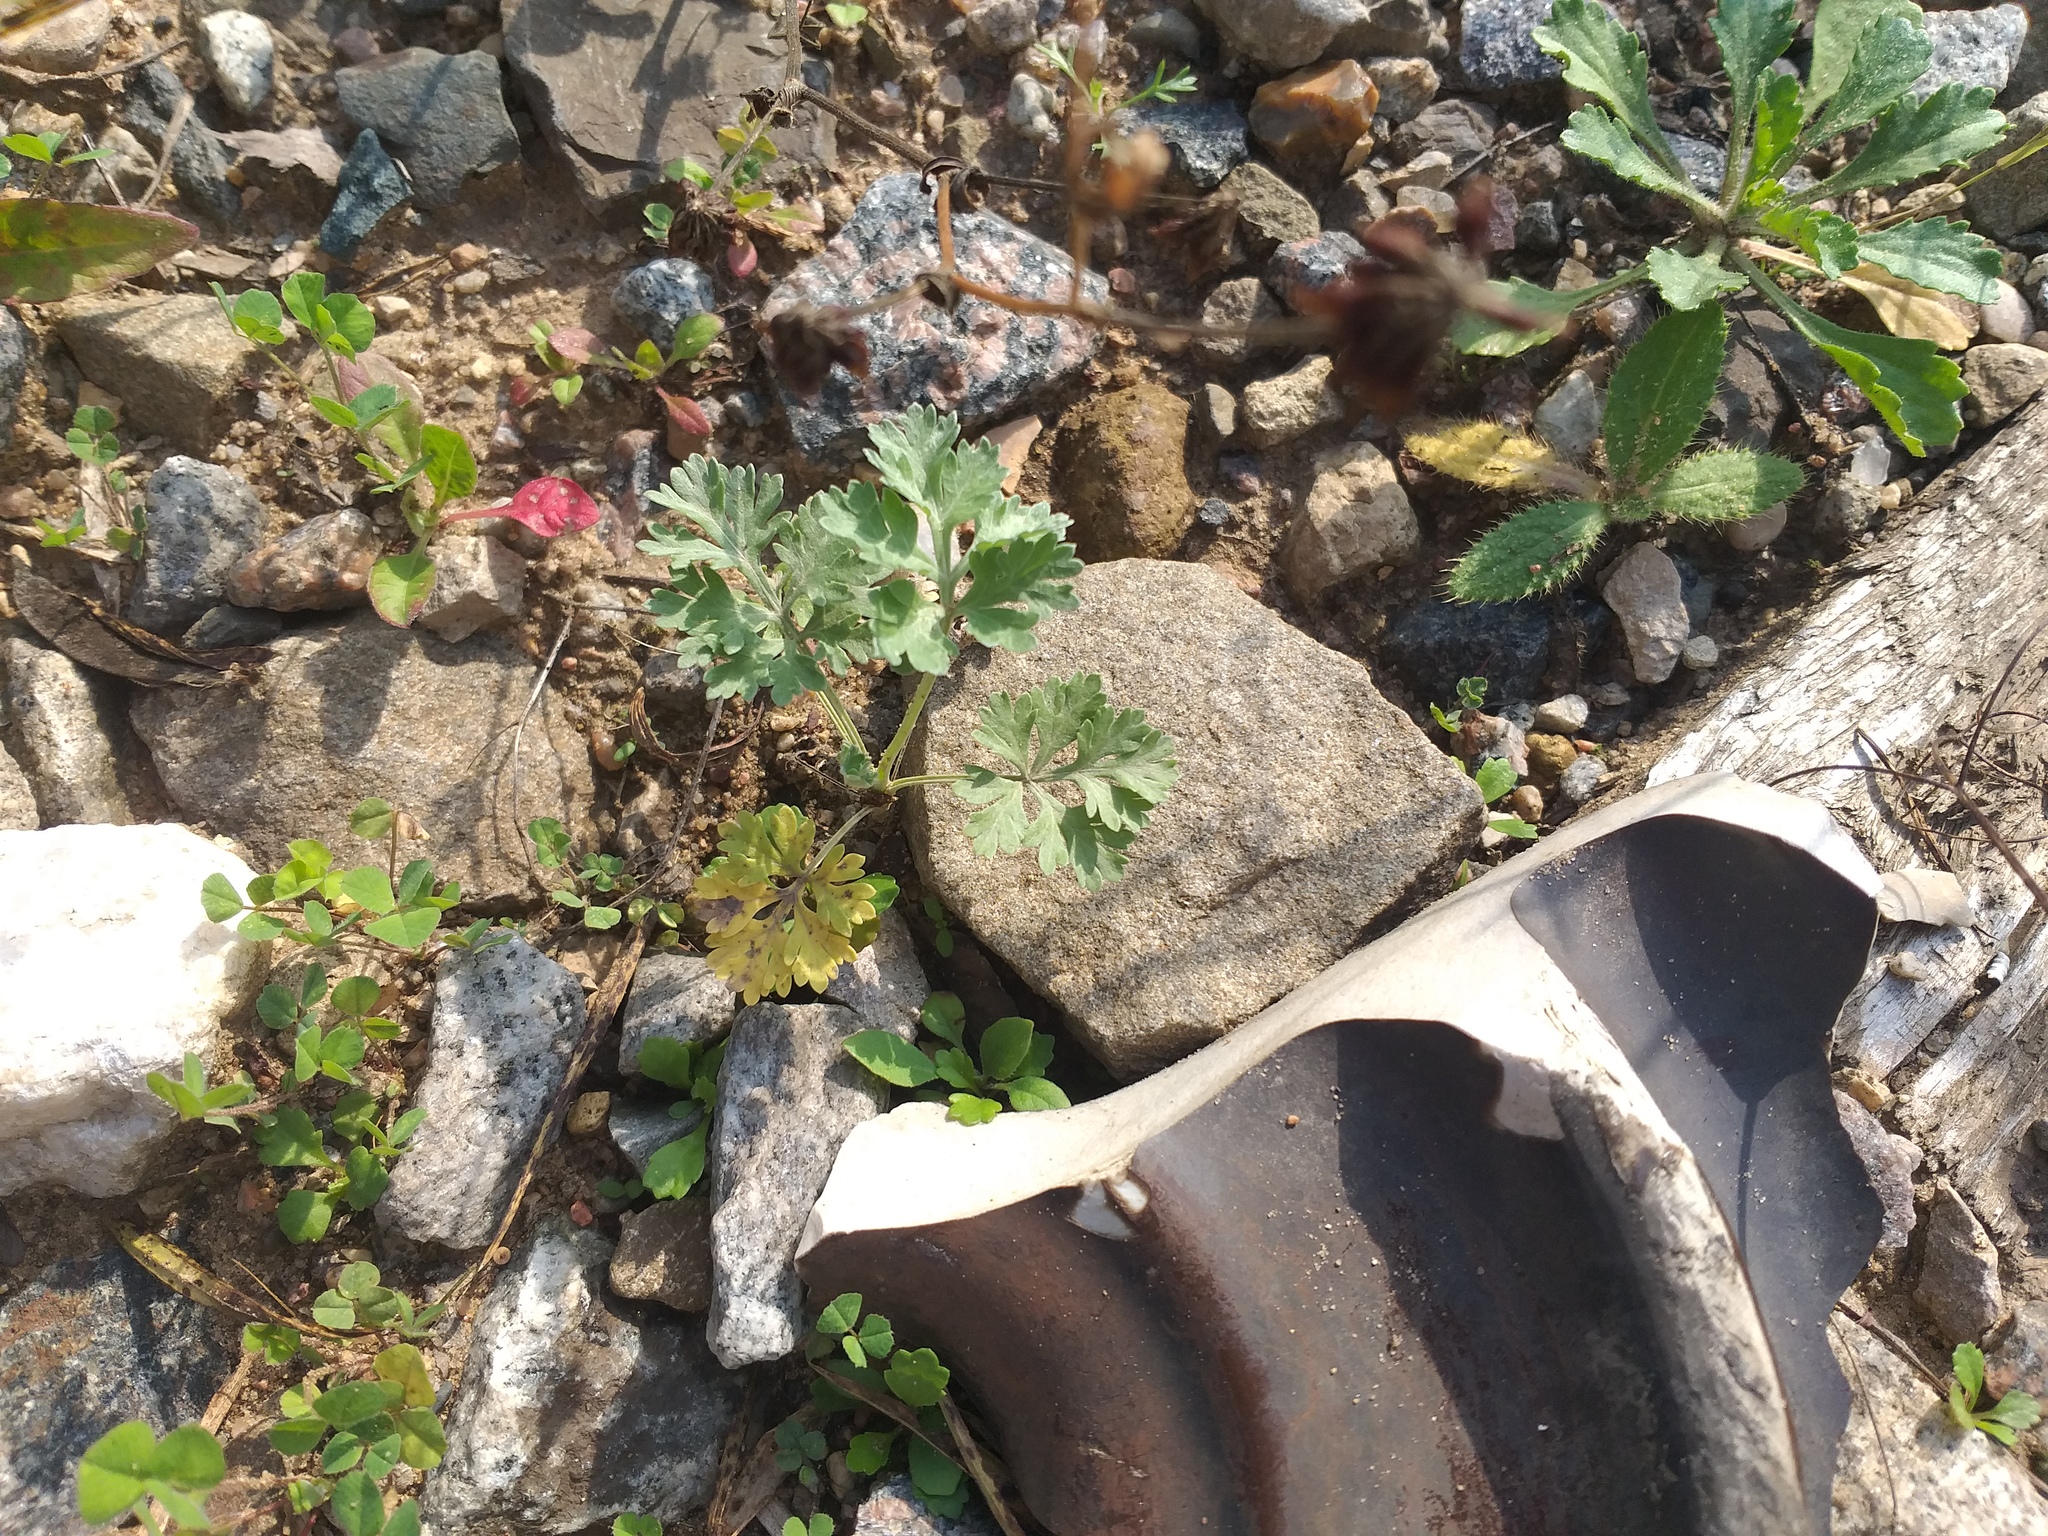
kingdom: Plantae
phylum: Tracheophyta
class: Magnoliopsida
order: Asterales
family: Asteraceae
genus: Artemisia
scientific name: Artemisia absinthium
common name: Wormwood
